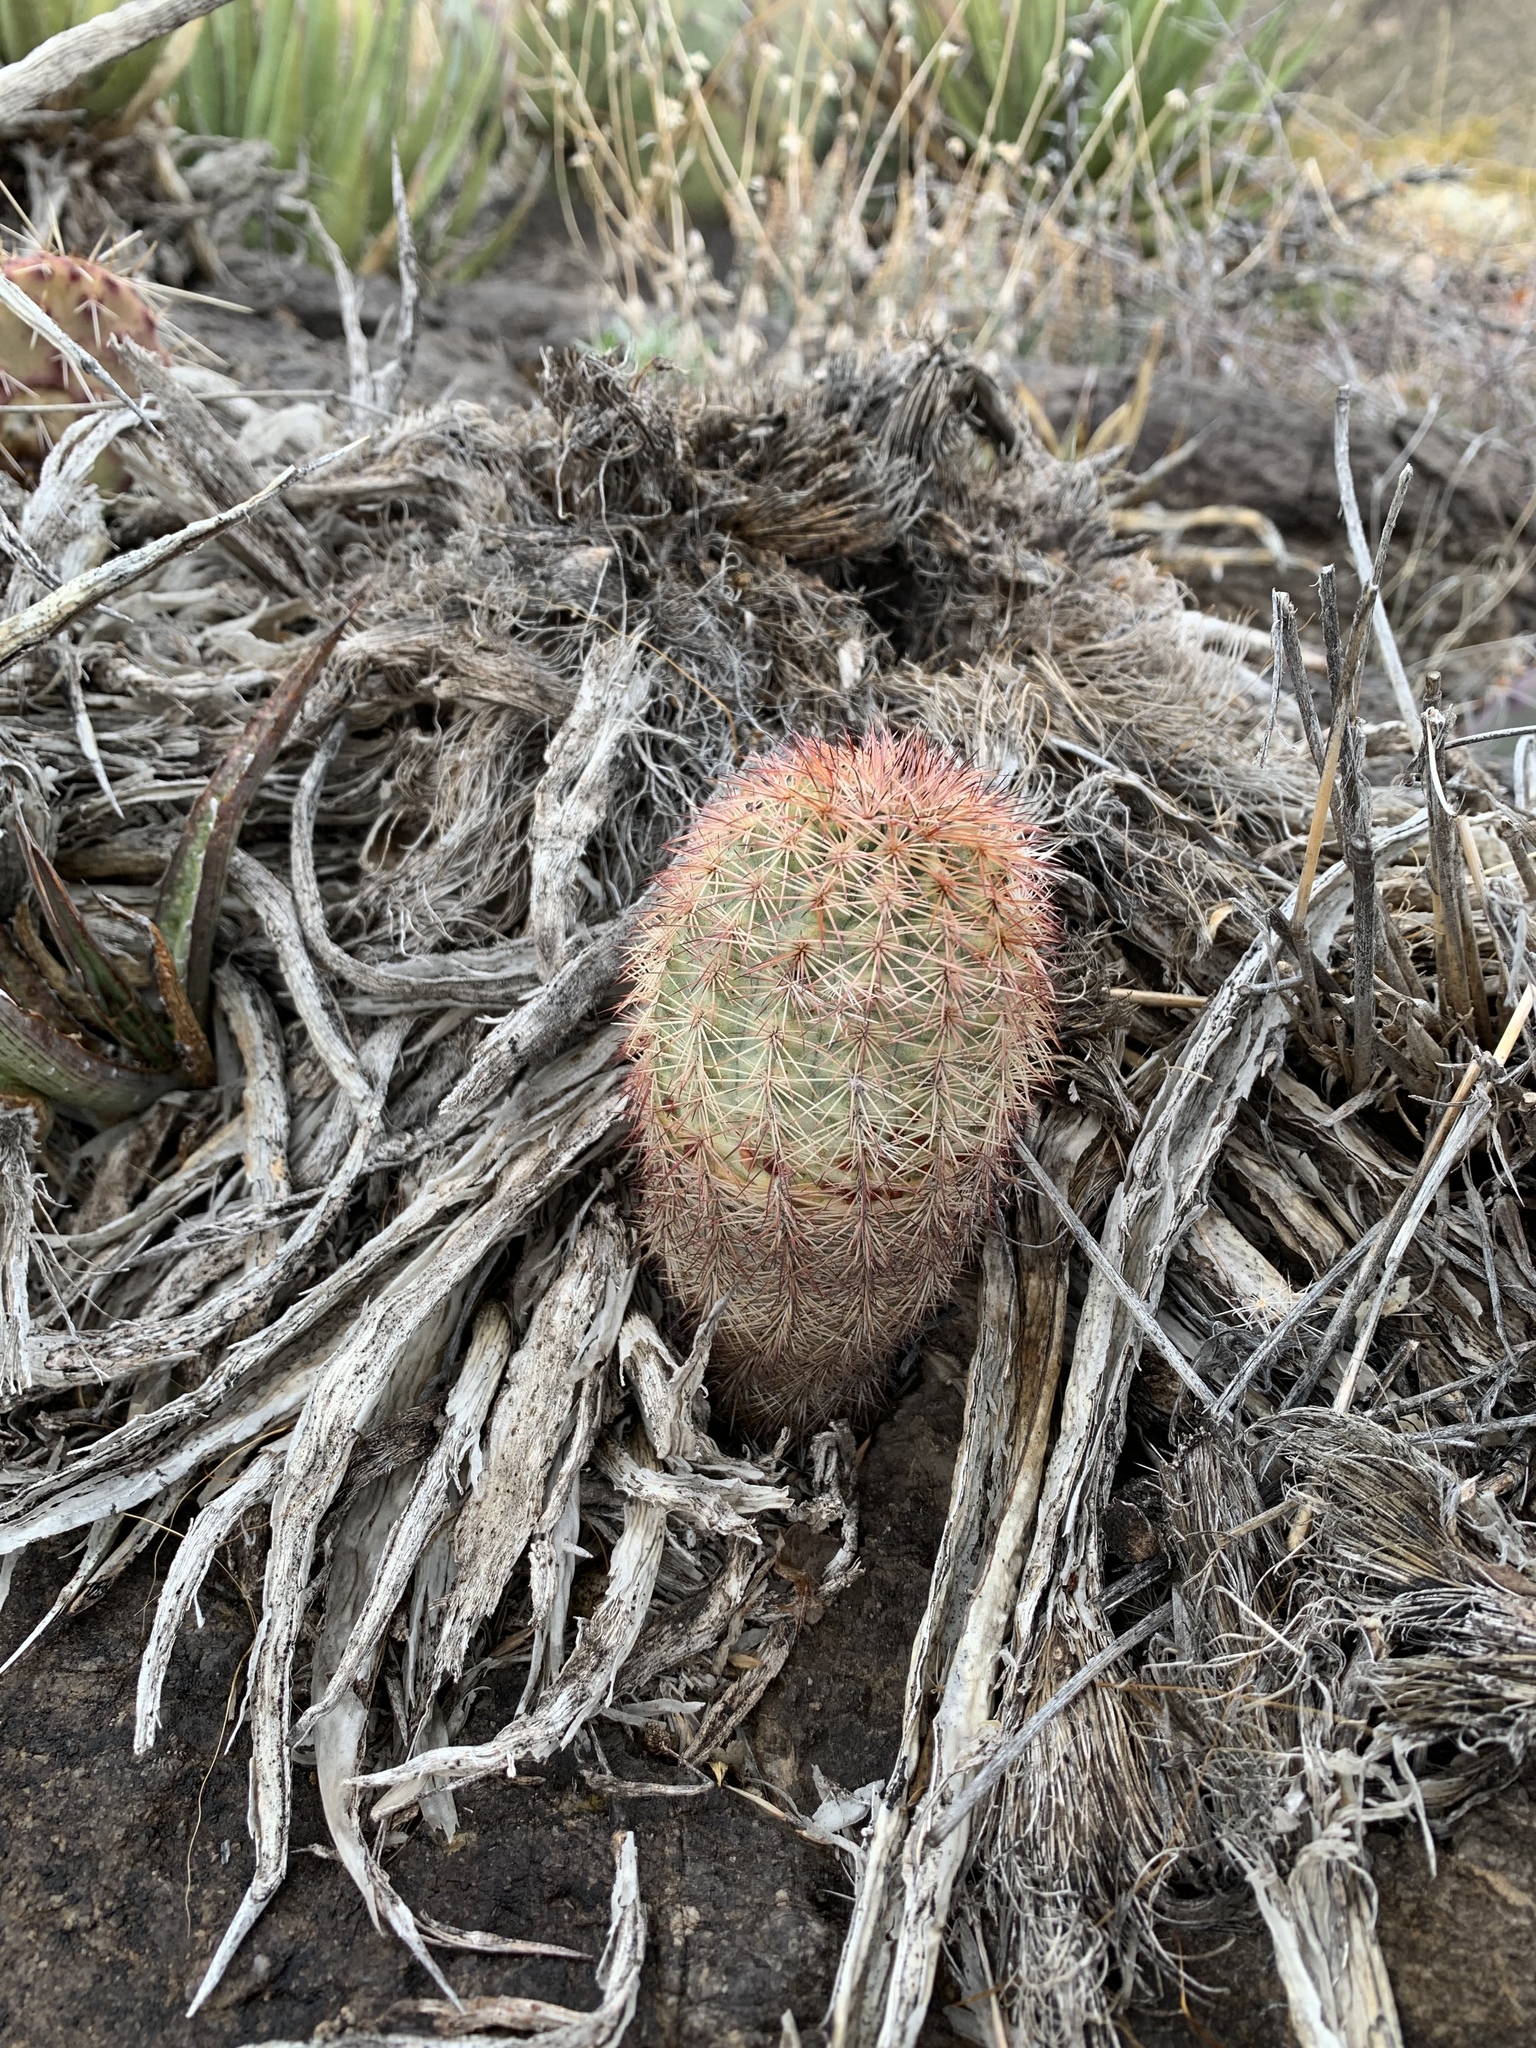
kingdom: Plantae
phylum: Tracheophyta
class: Magnoliopsida
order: Caryophyllales
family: Cactaceae
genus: Echinocereus
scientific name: Echinocereus dasyacanthus
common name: Spiny hedgehog cactus
